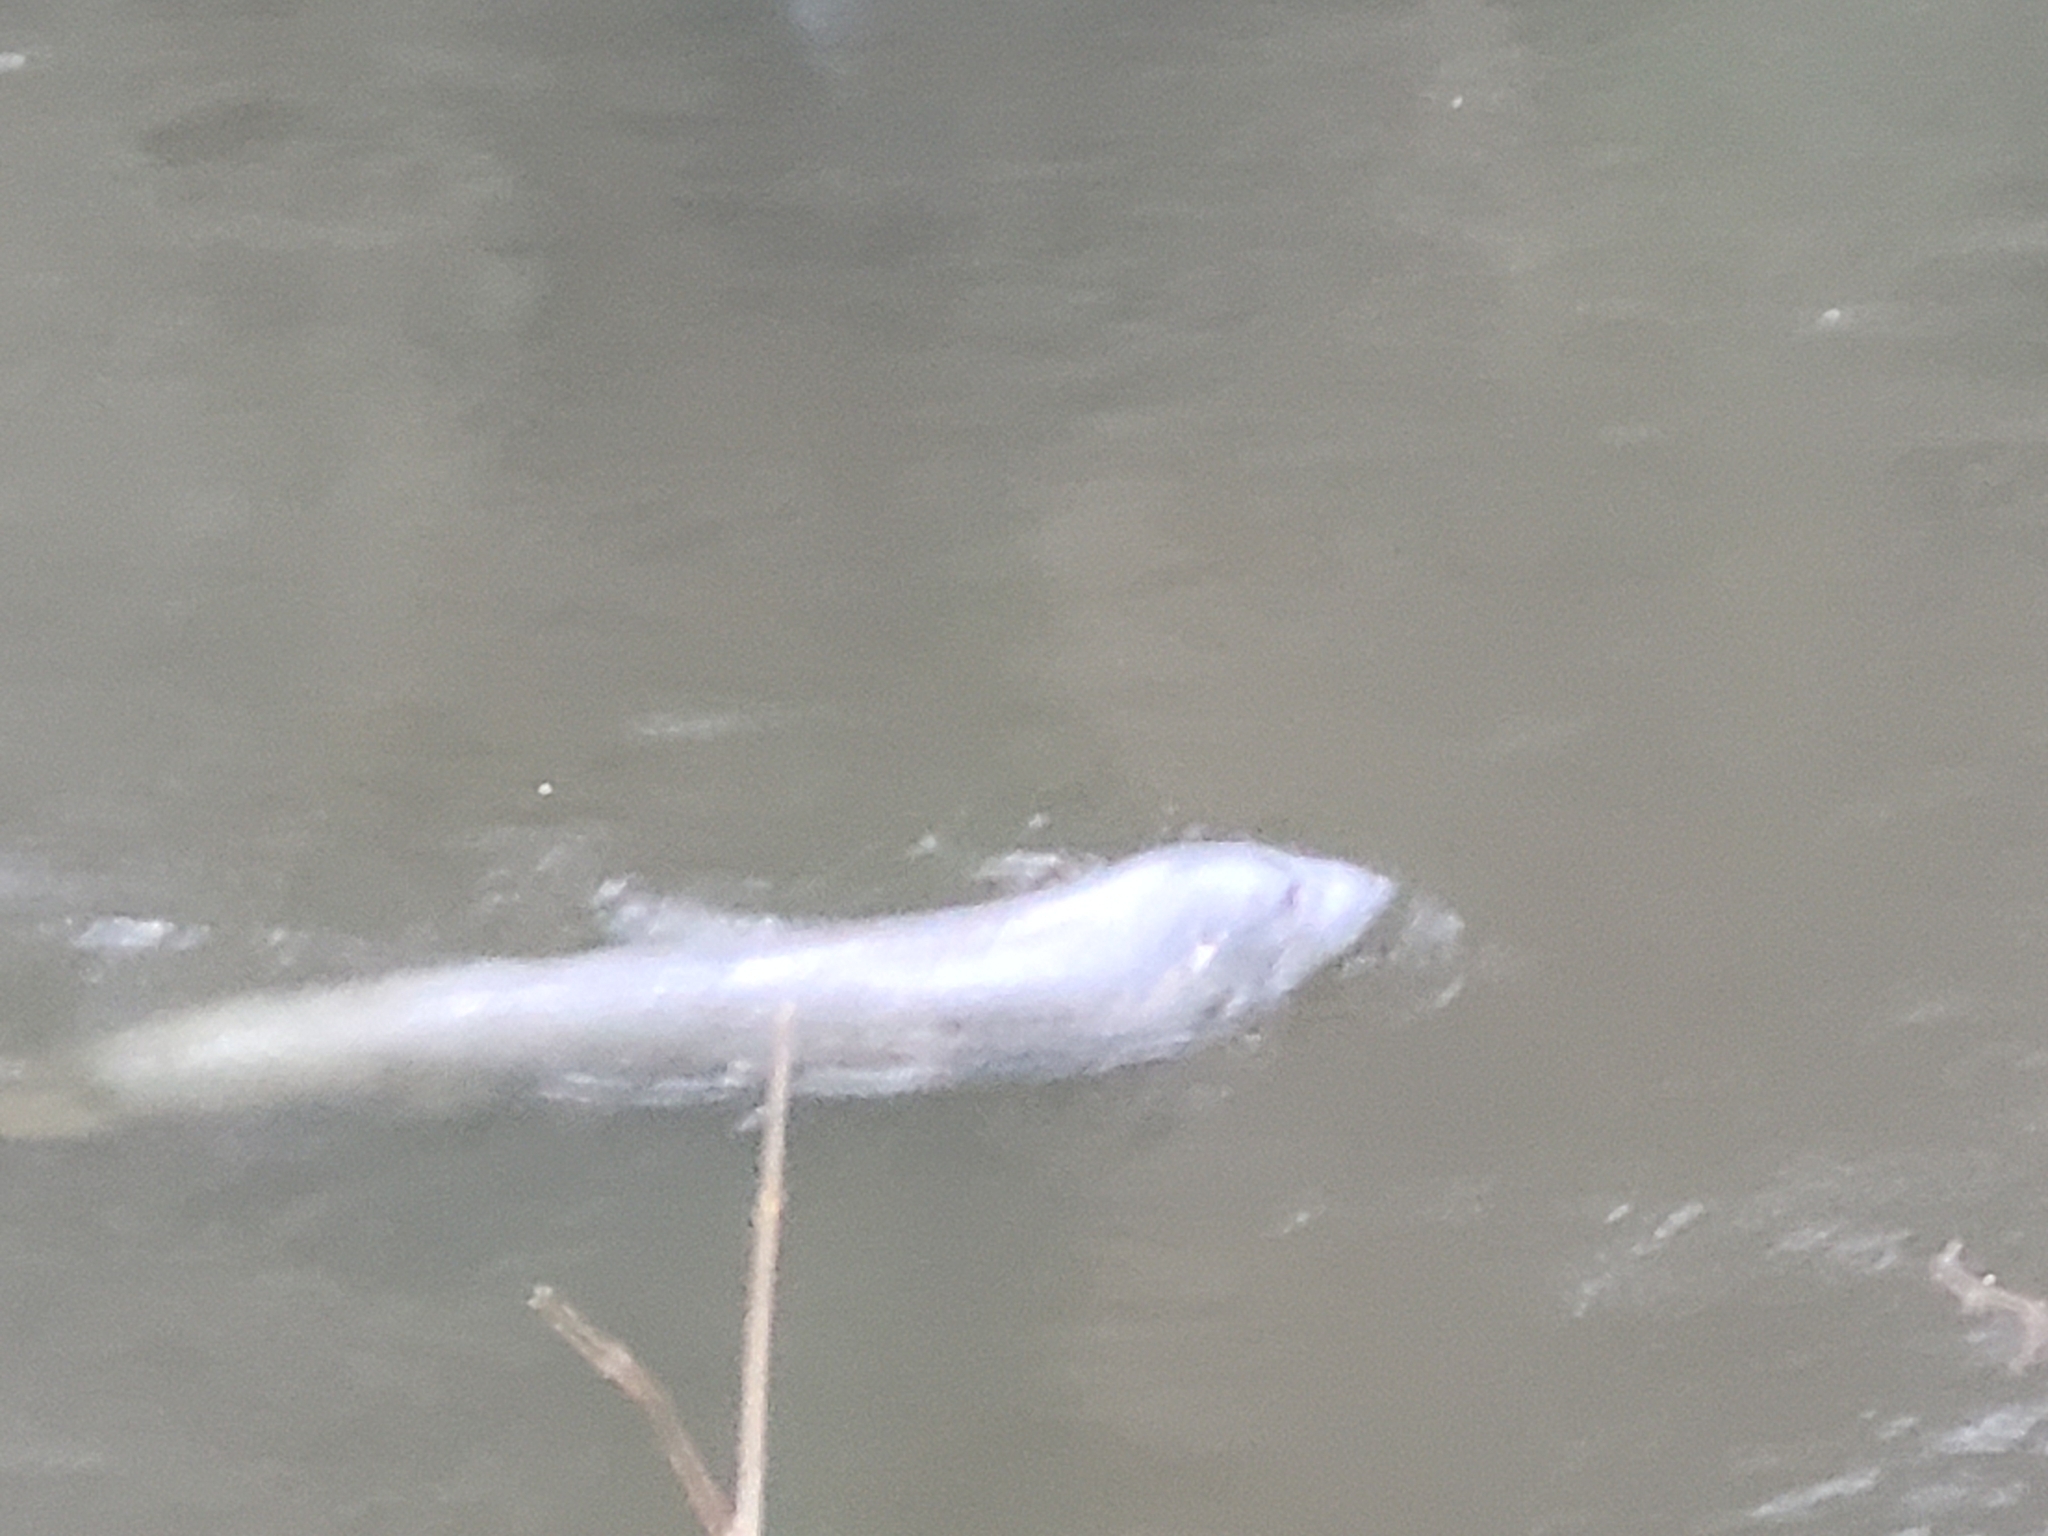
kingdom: Animalia
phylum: Chordata
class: Mammalia
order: Carnivora
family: Phocidae
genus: Halichoerus
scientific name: Halichoerus grypus
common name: Grey seal
